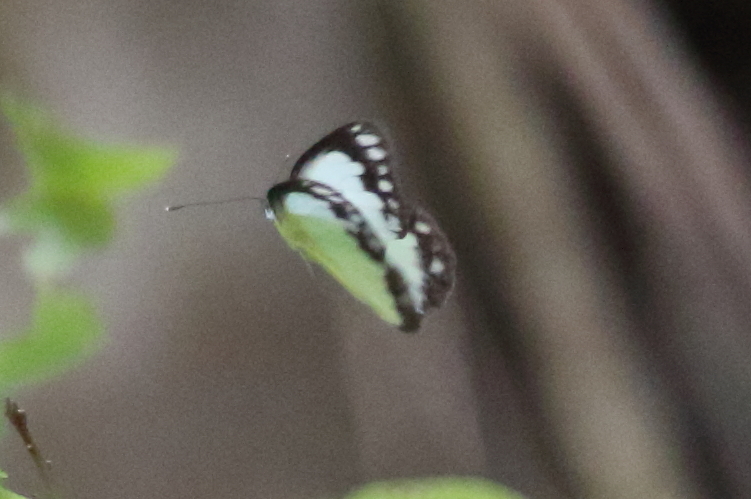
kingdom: Animalia
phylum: Arthropoda
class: Insecta
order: Lepidoptera
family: Pieridae
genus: Cepora
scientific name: Cepora perimale
